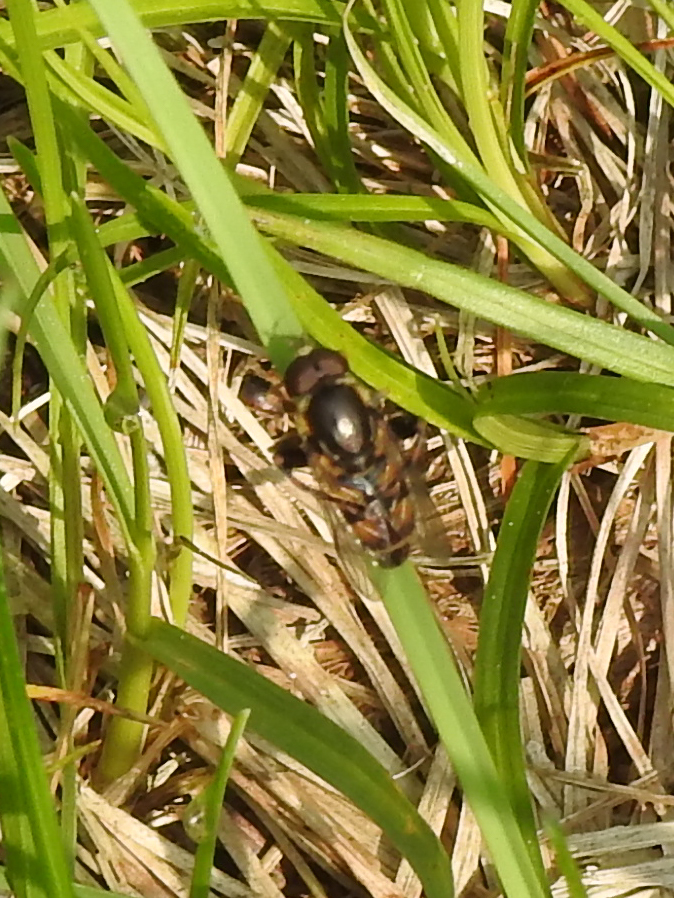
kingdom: Animalia
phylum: Arthropoda
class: Insecta
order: Diptera
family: Syrphidae
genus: Tropidia
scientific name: Tropidia albistylum
